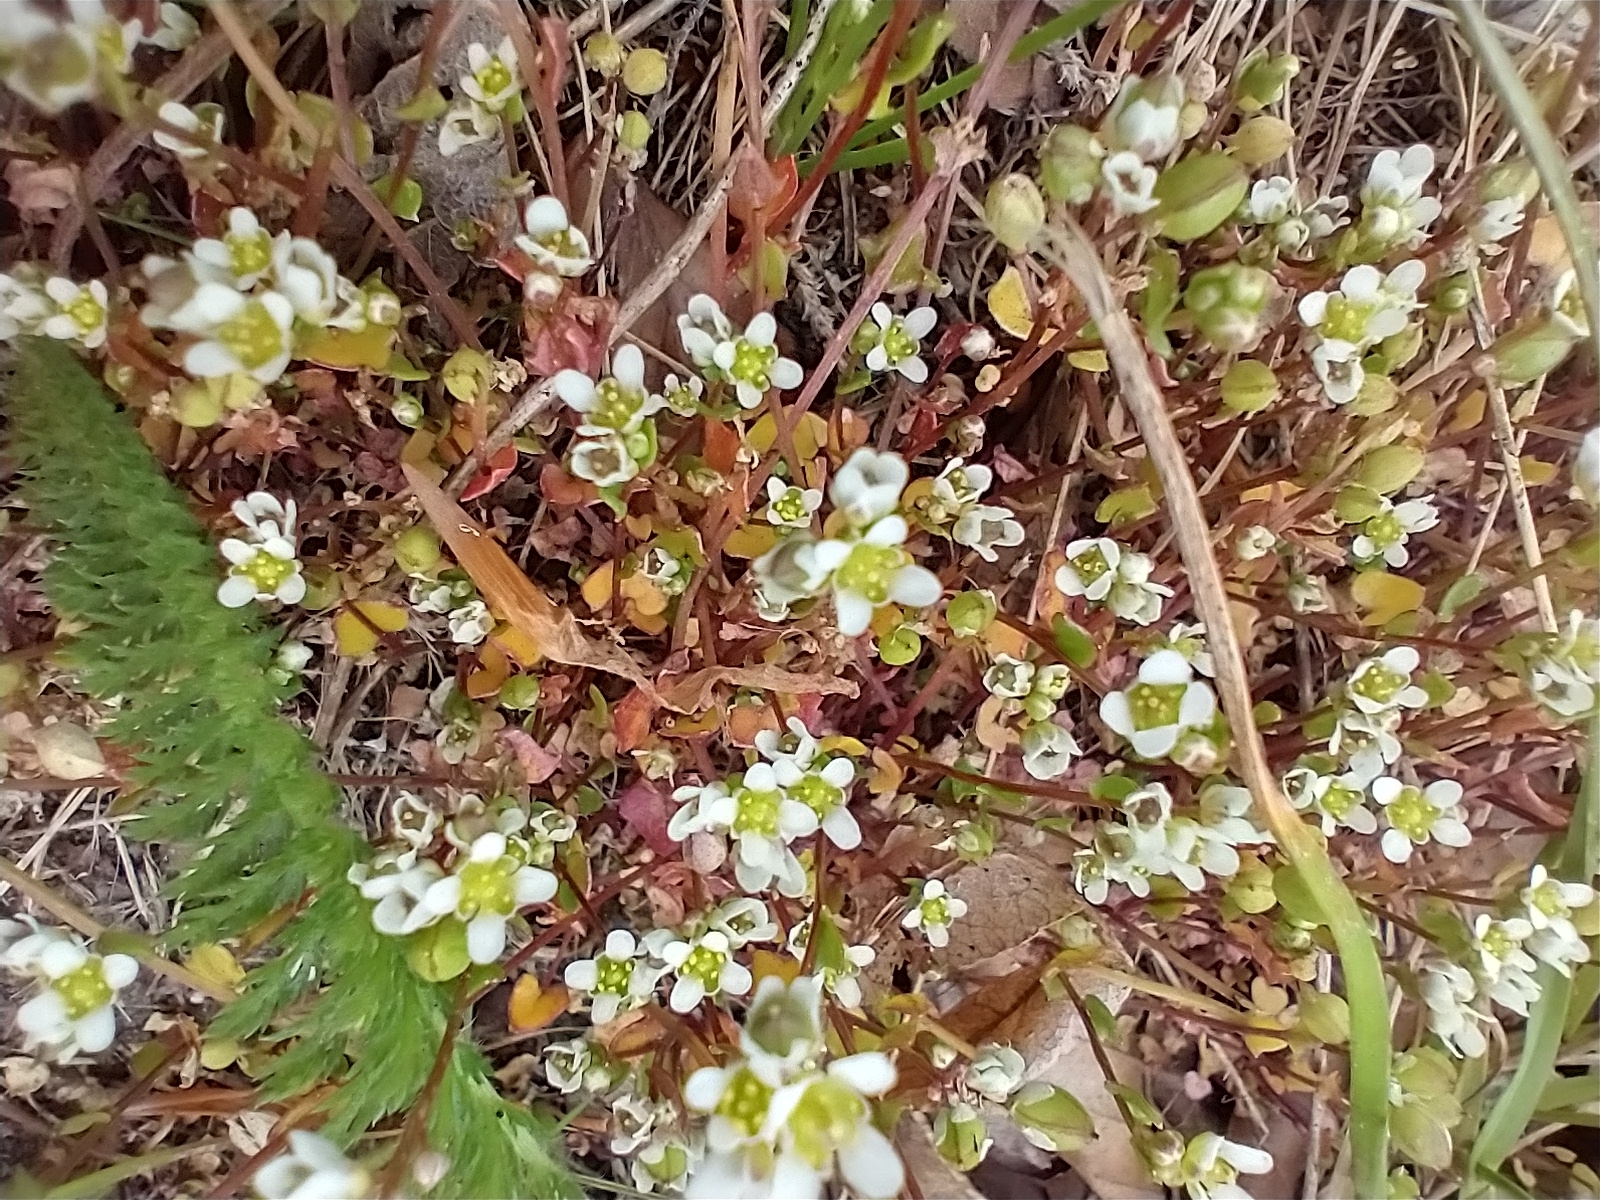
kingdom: Plantae
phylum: Tracheophyta
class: Magnoliopsida
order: Brassicales
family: Brassicaceae
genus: Cochlearia
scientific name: Cochlearia danica
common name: Early scurvygrass
